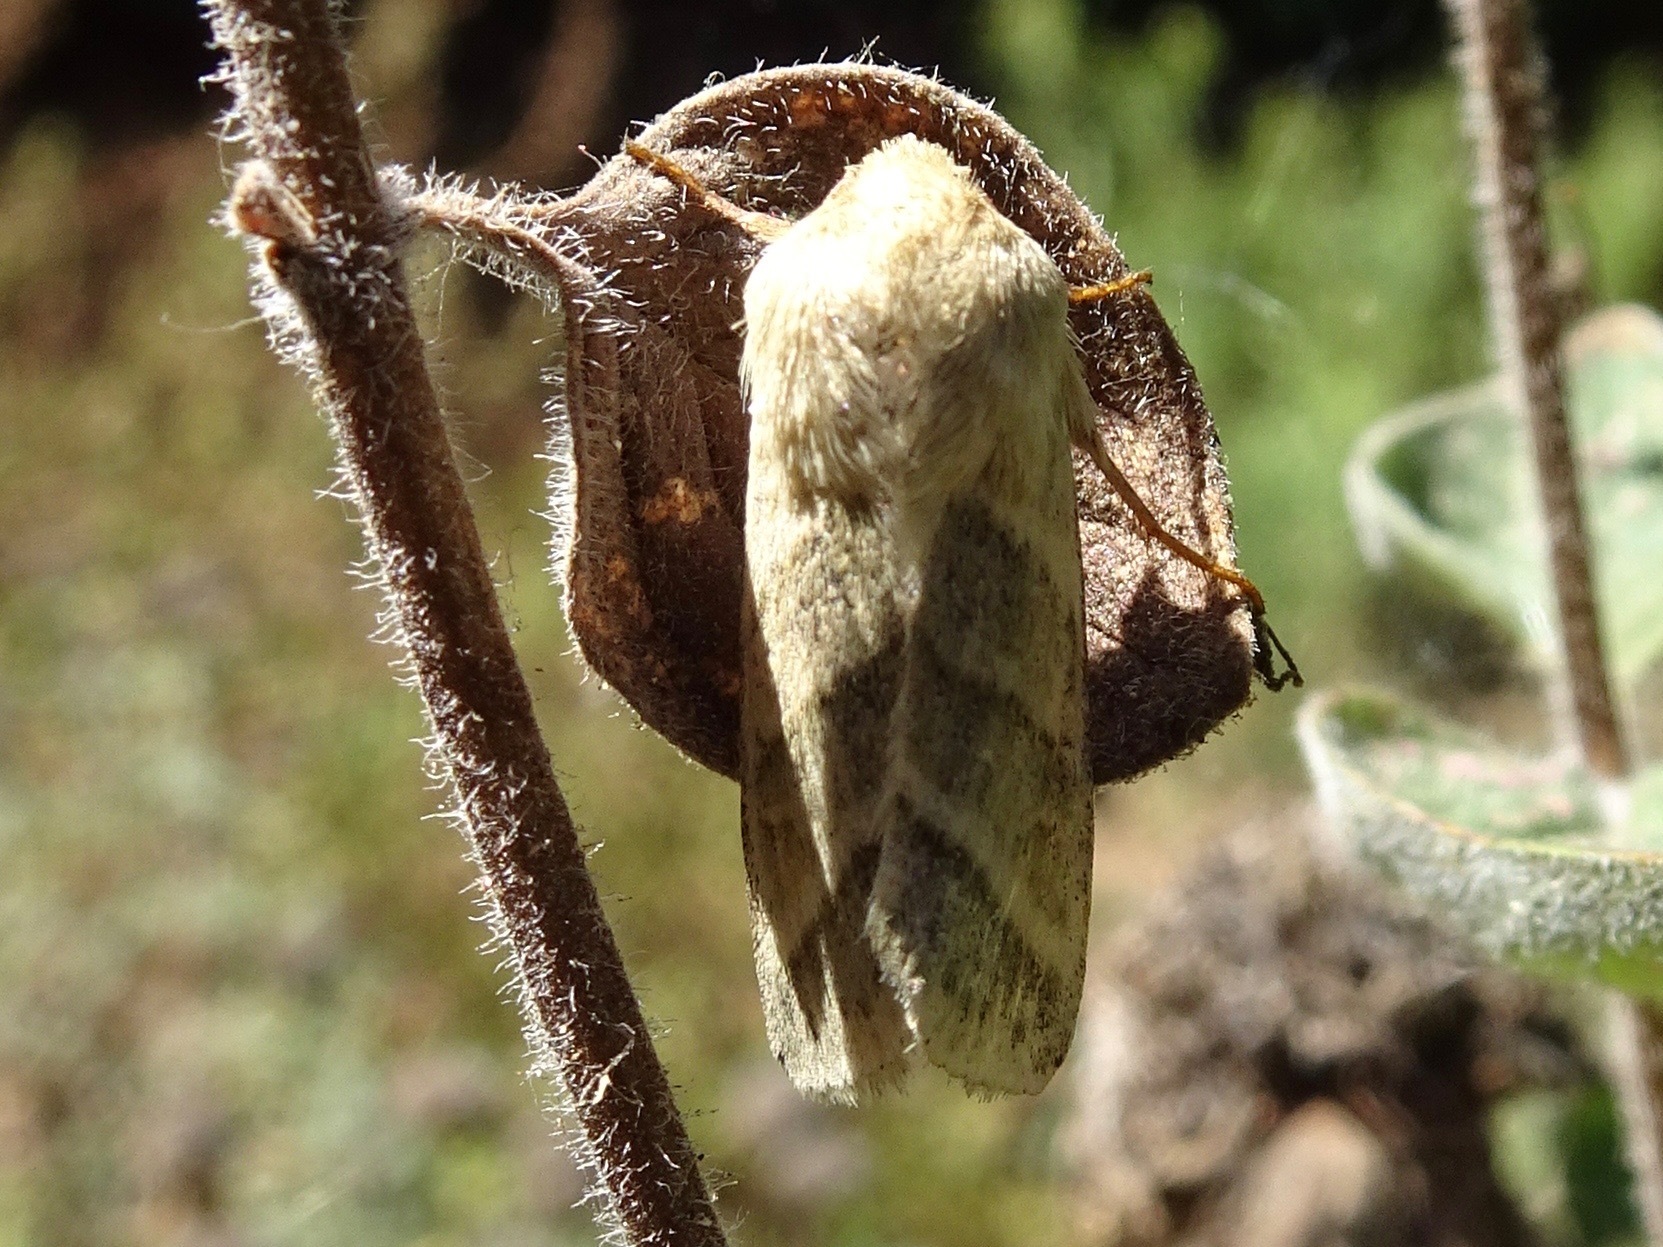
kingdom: Animalia
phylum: Arthropoda
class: Insecta
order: Lepidoptera
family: Noctuidae
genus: Chloridea
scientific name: Chloridea virescens
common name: Tobacco budworm
